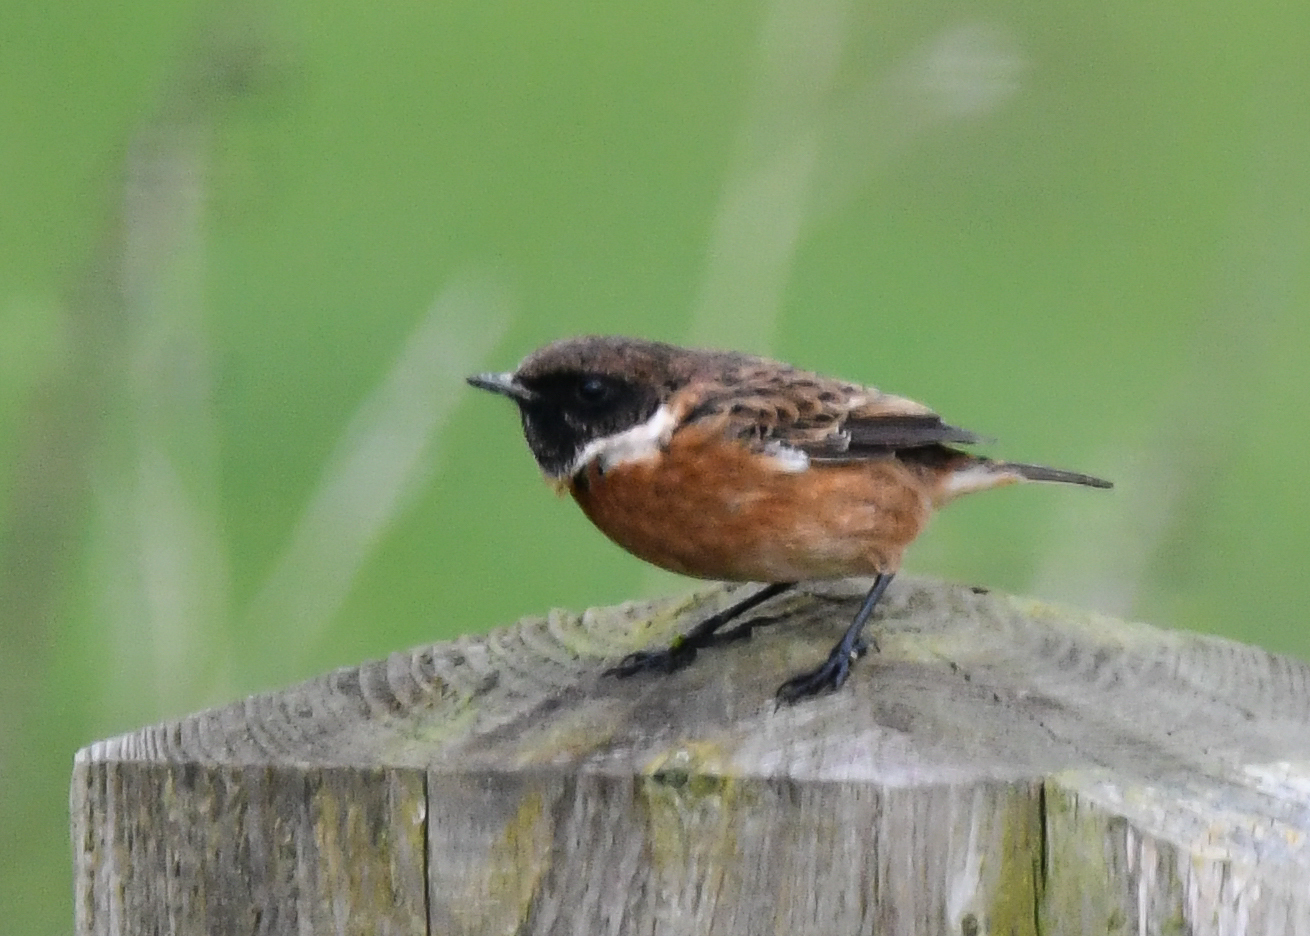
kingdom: Animalia
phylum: Chordata
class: Aves
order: Passeriformes
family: Muscicapidae
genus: Saxicola
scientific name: Saxicola rubicola
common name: European stonechat
